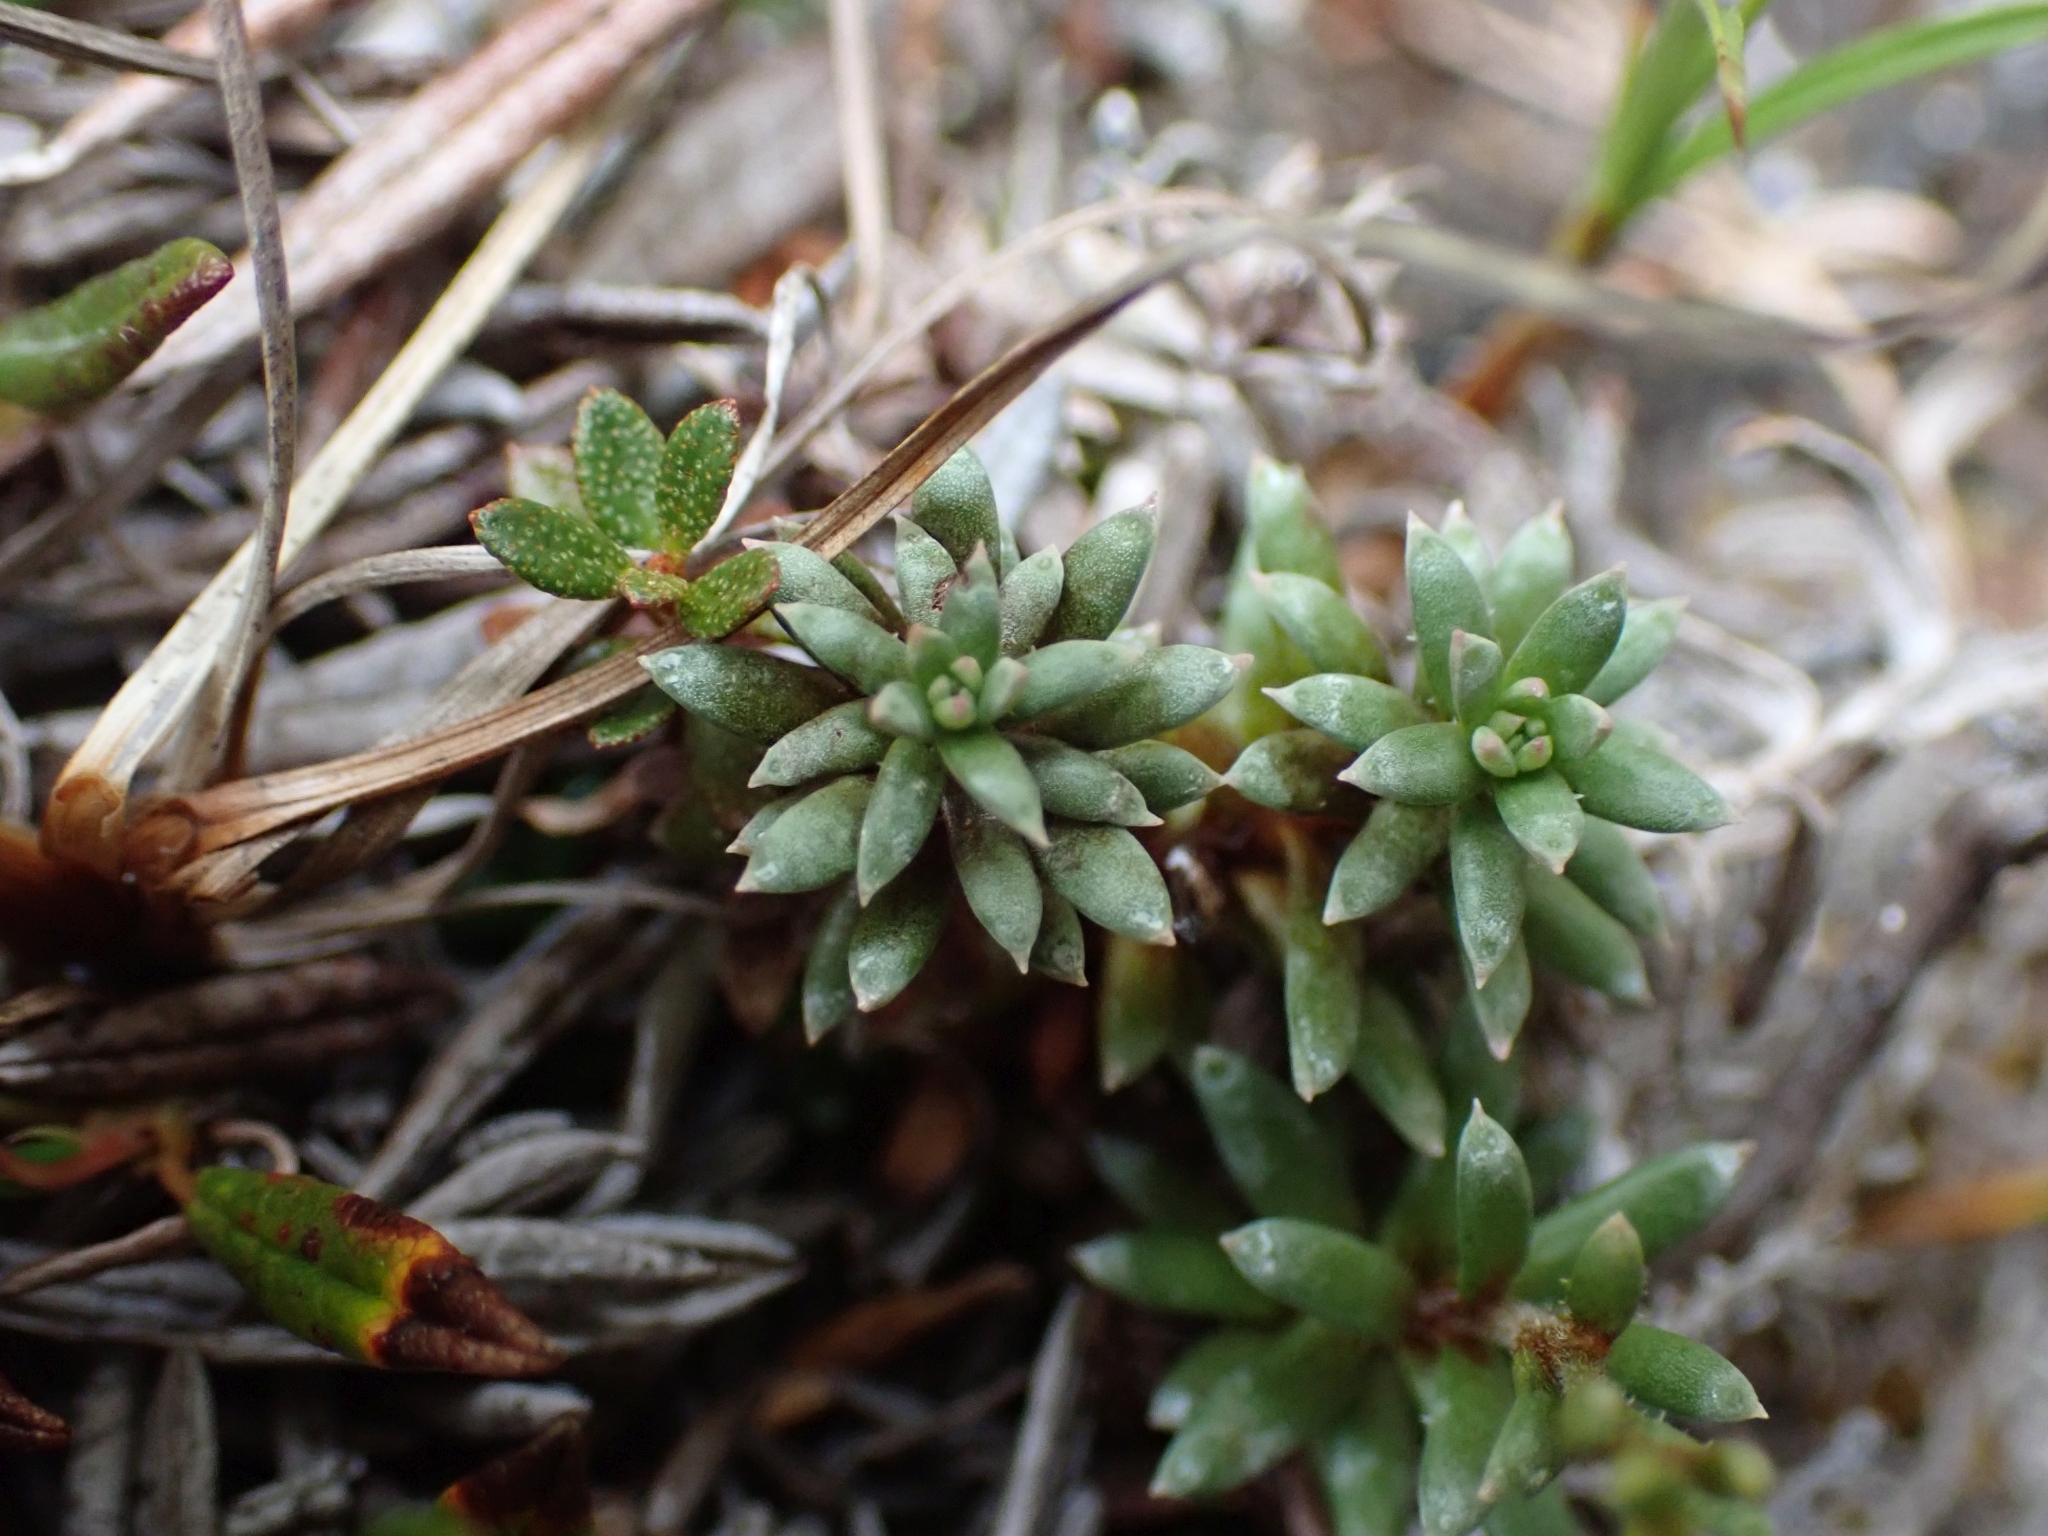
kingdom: Plantae
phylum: Tracheophyta
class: Magnoliopsida
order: Saxifragales
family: Saxifragaceae
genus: Saxifraga
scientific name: Saxifraga aizoides
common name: Yellow mountain saxifrage
